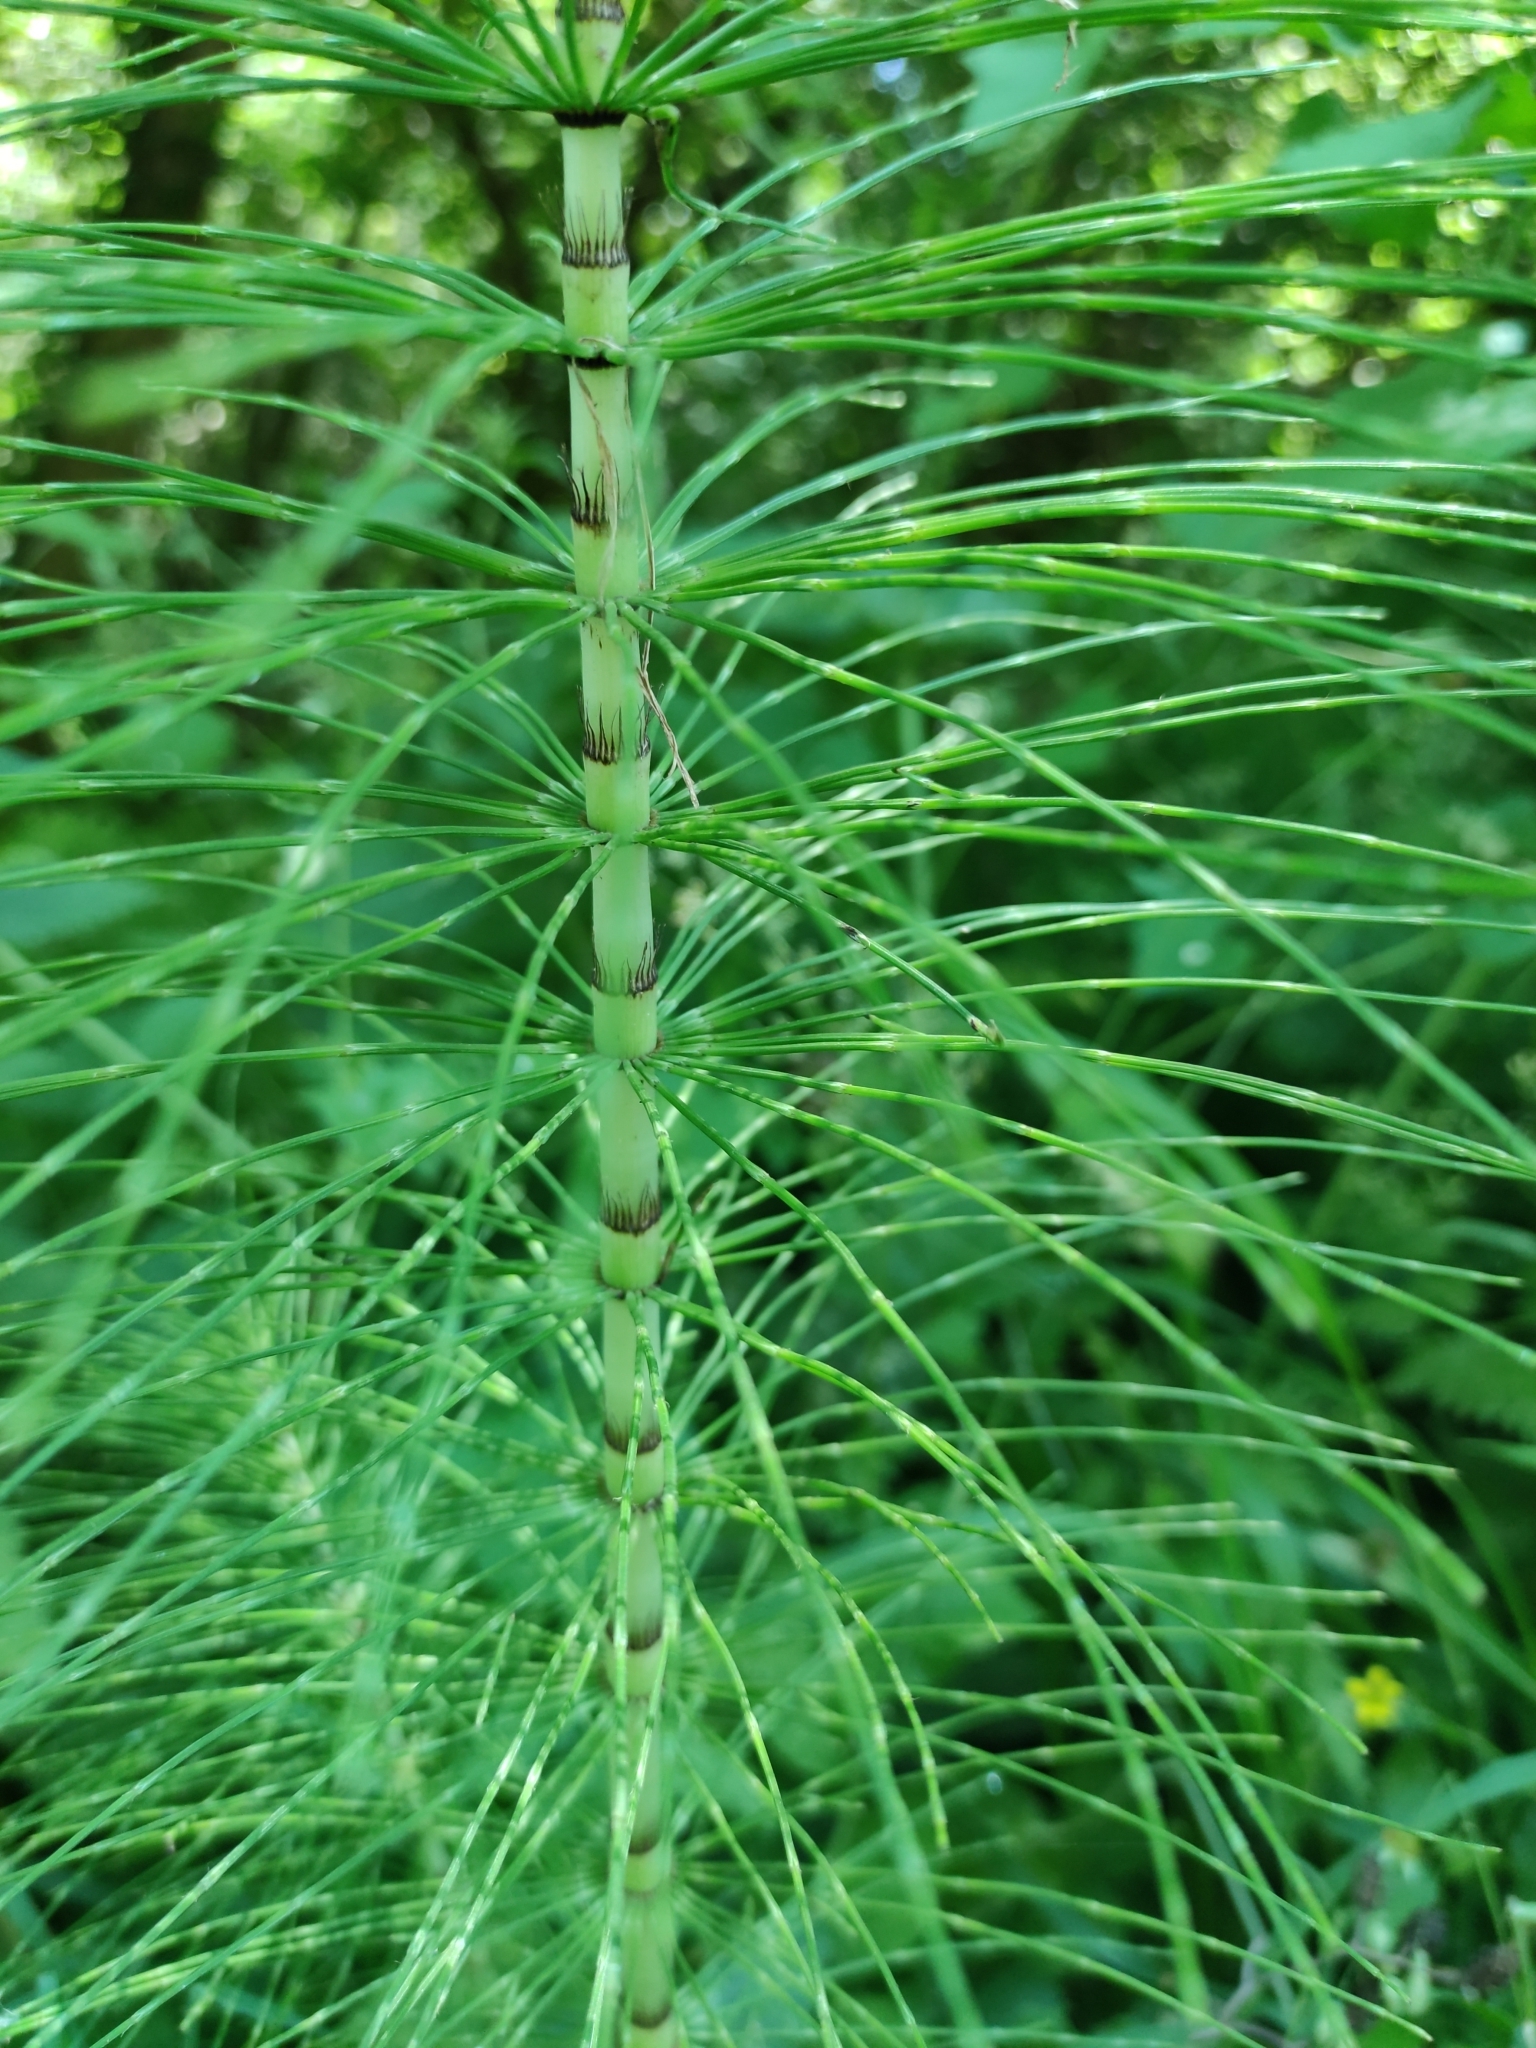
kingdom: Plantae
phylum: Tracheophyta
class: Polypodiopsida
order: Equisetales
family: Equisetaceae
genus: Equisetum
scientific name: Equisetum telmateia
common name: Great horsetail
